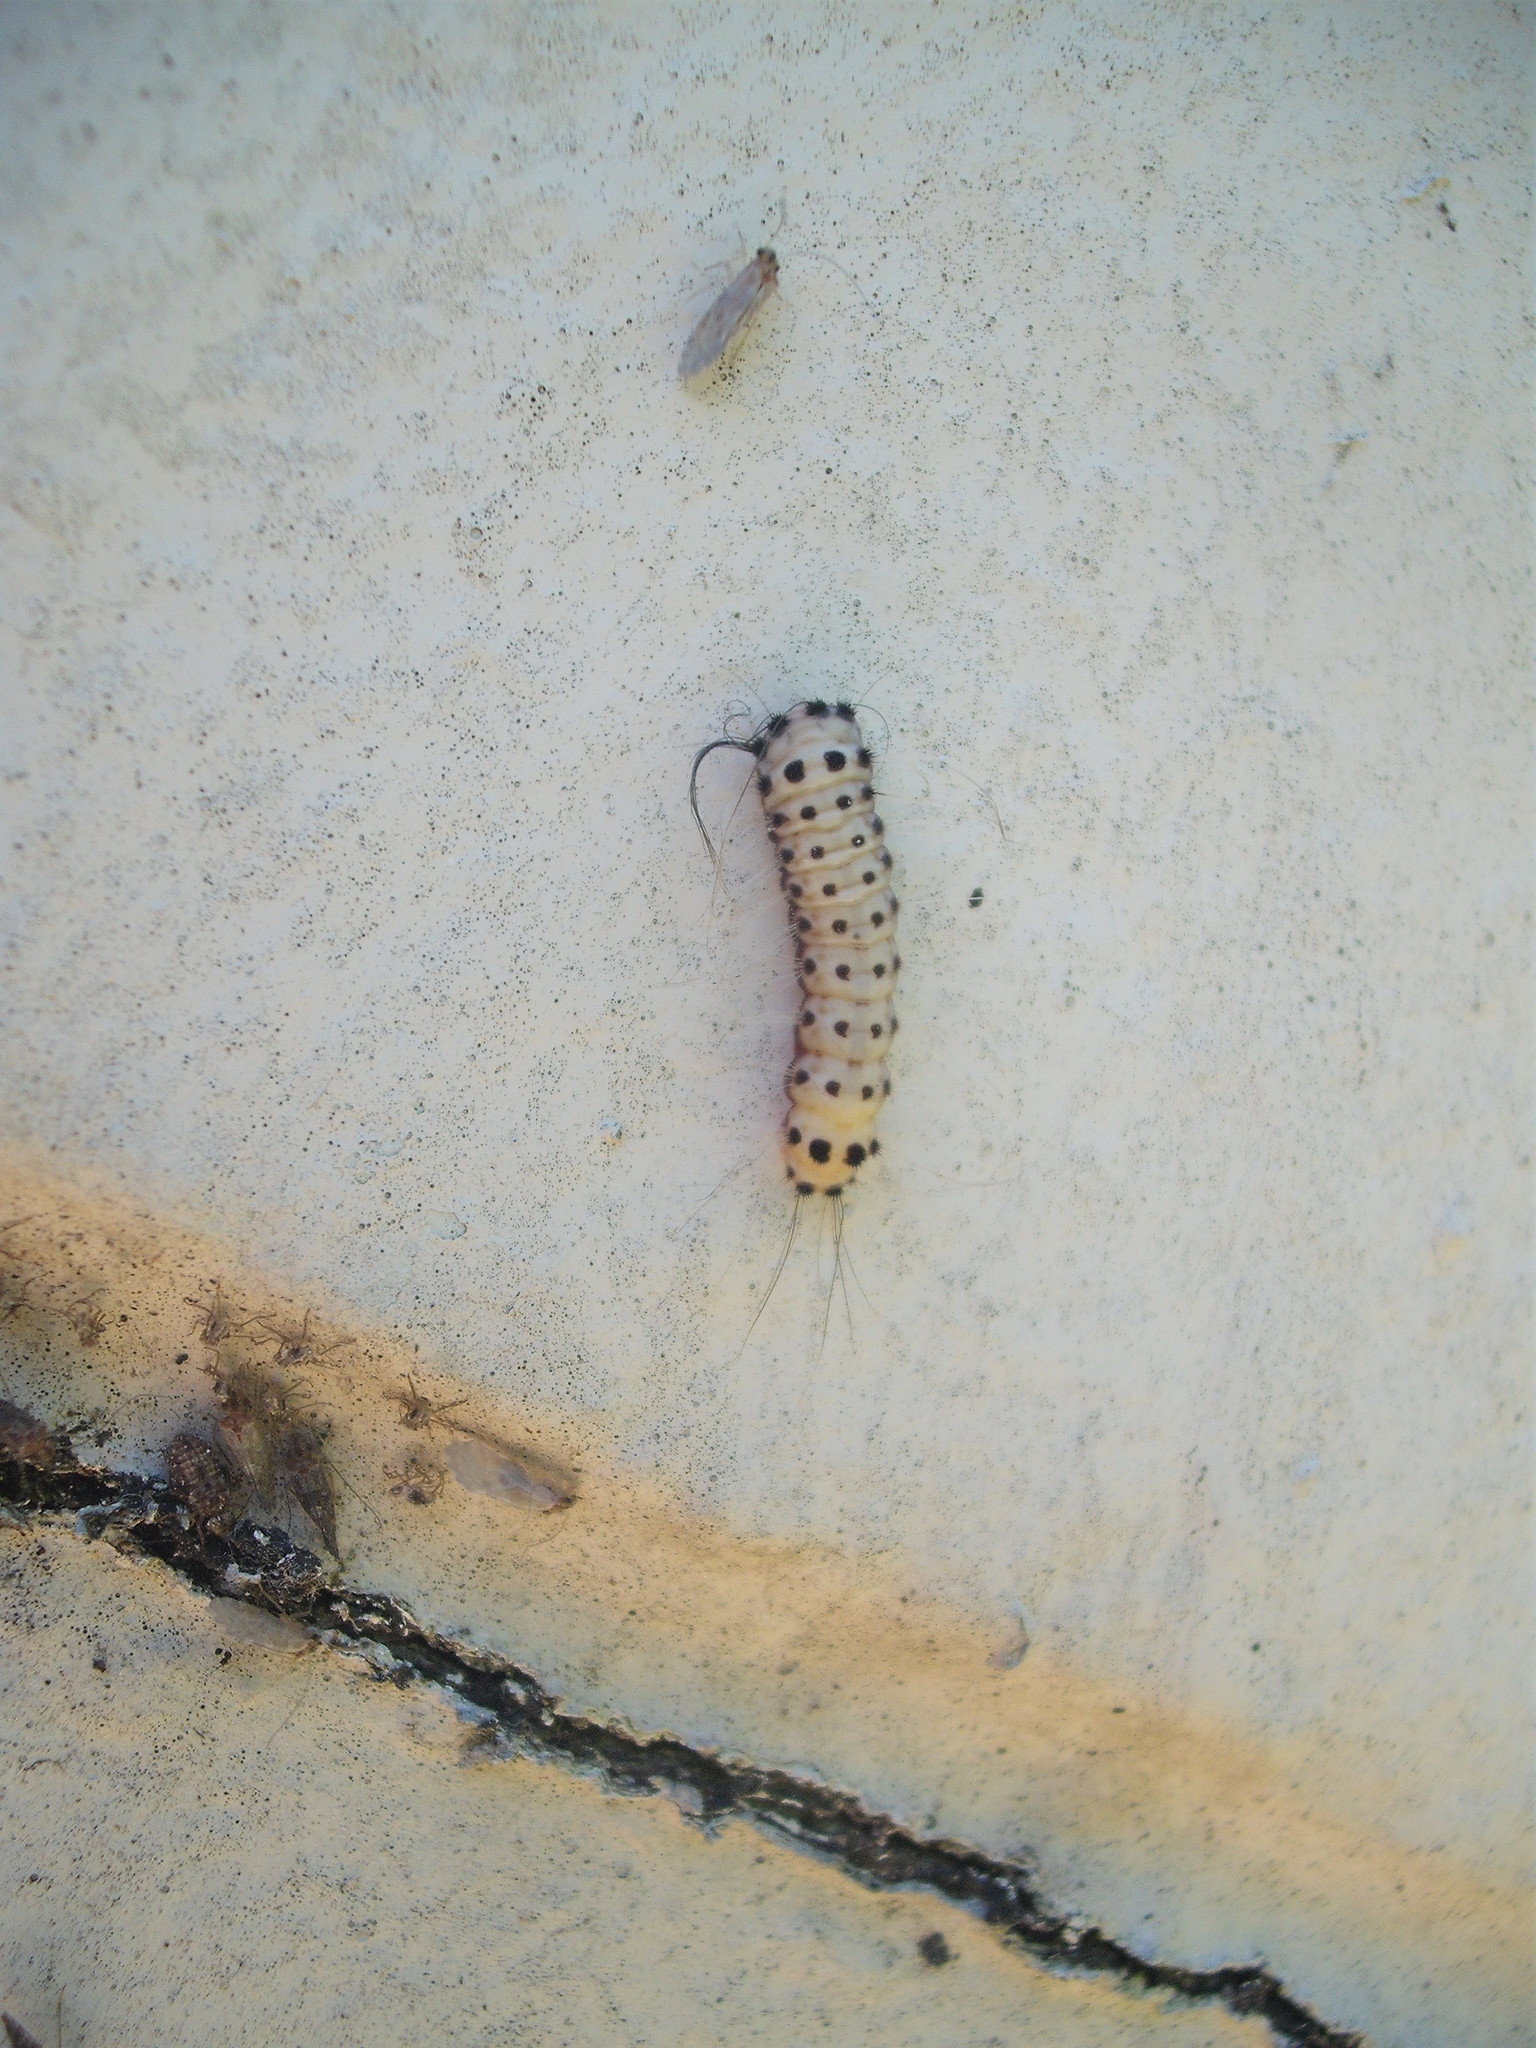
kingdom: Animalia
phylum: Arthropoda
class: Insecta
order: Lepidoptera
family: Zygaenidae
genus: Artona
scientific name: Artona martini
